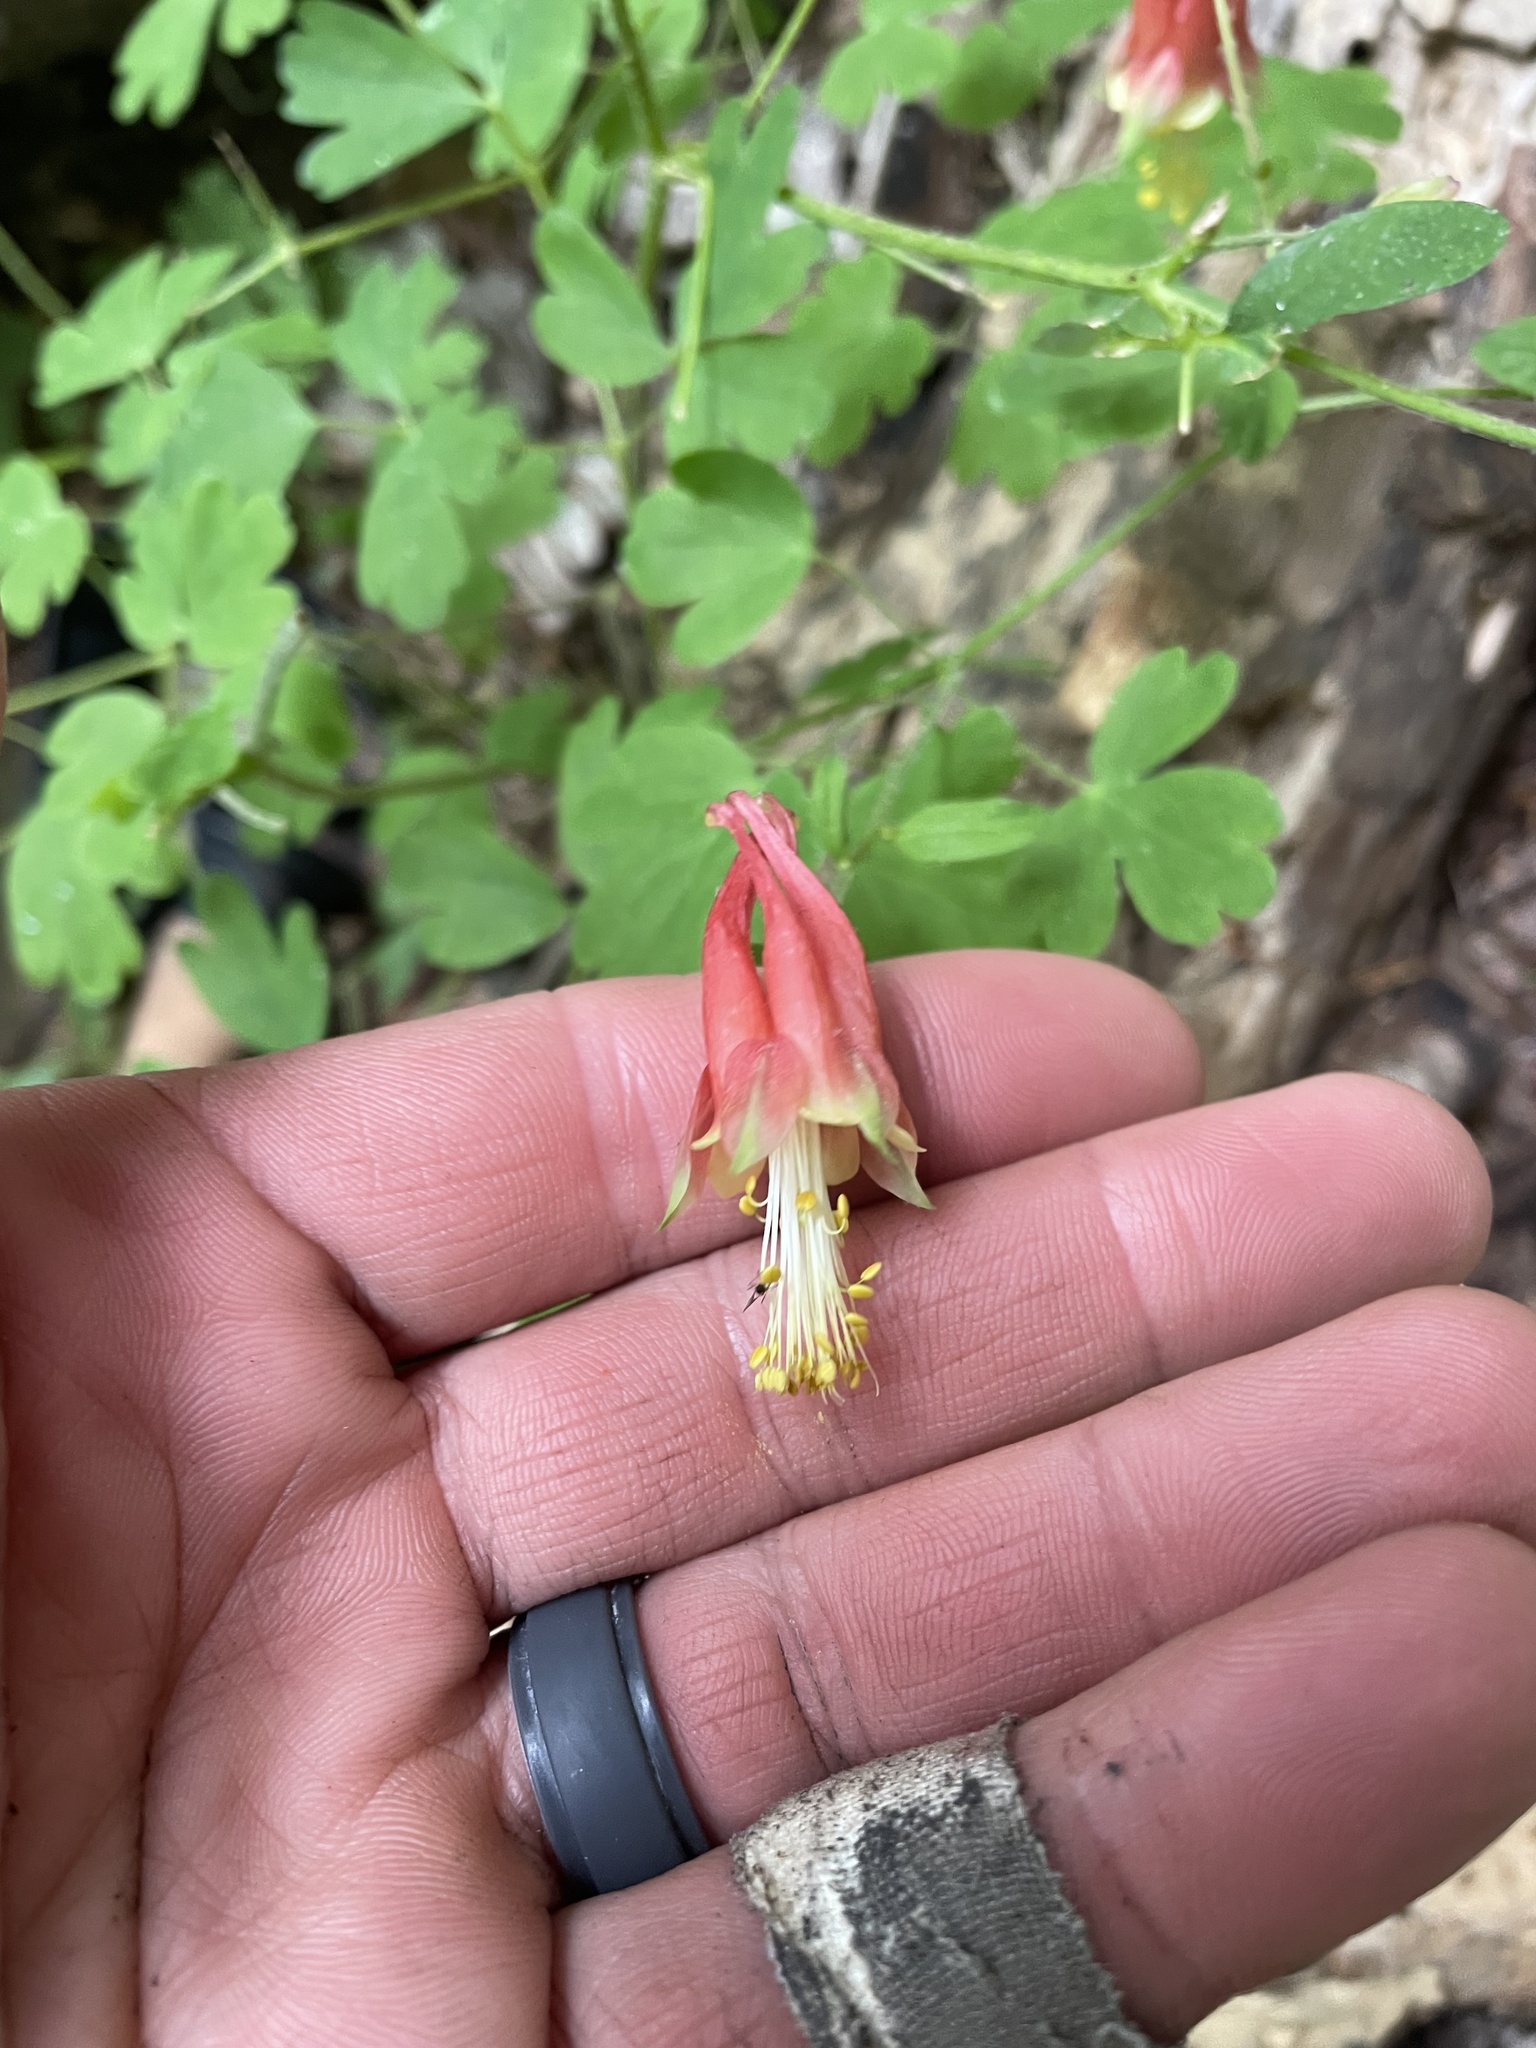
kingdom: Plantae
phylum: Tracheophyta
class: Magnoliopsida
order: Ranunculales
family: Ranunculaceae
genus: Aquilegia
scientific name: Aquilegia canadensis
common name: American columbine
